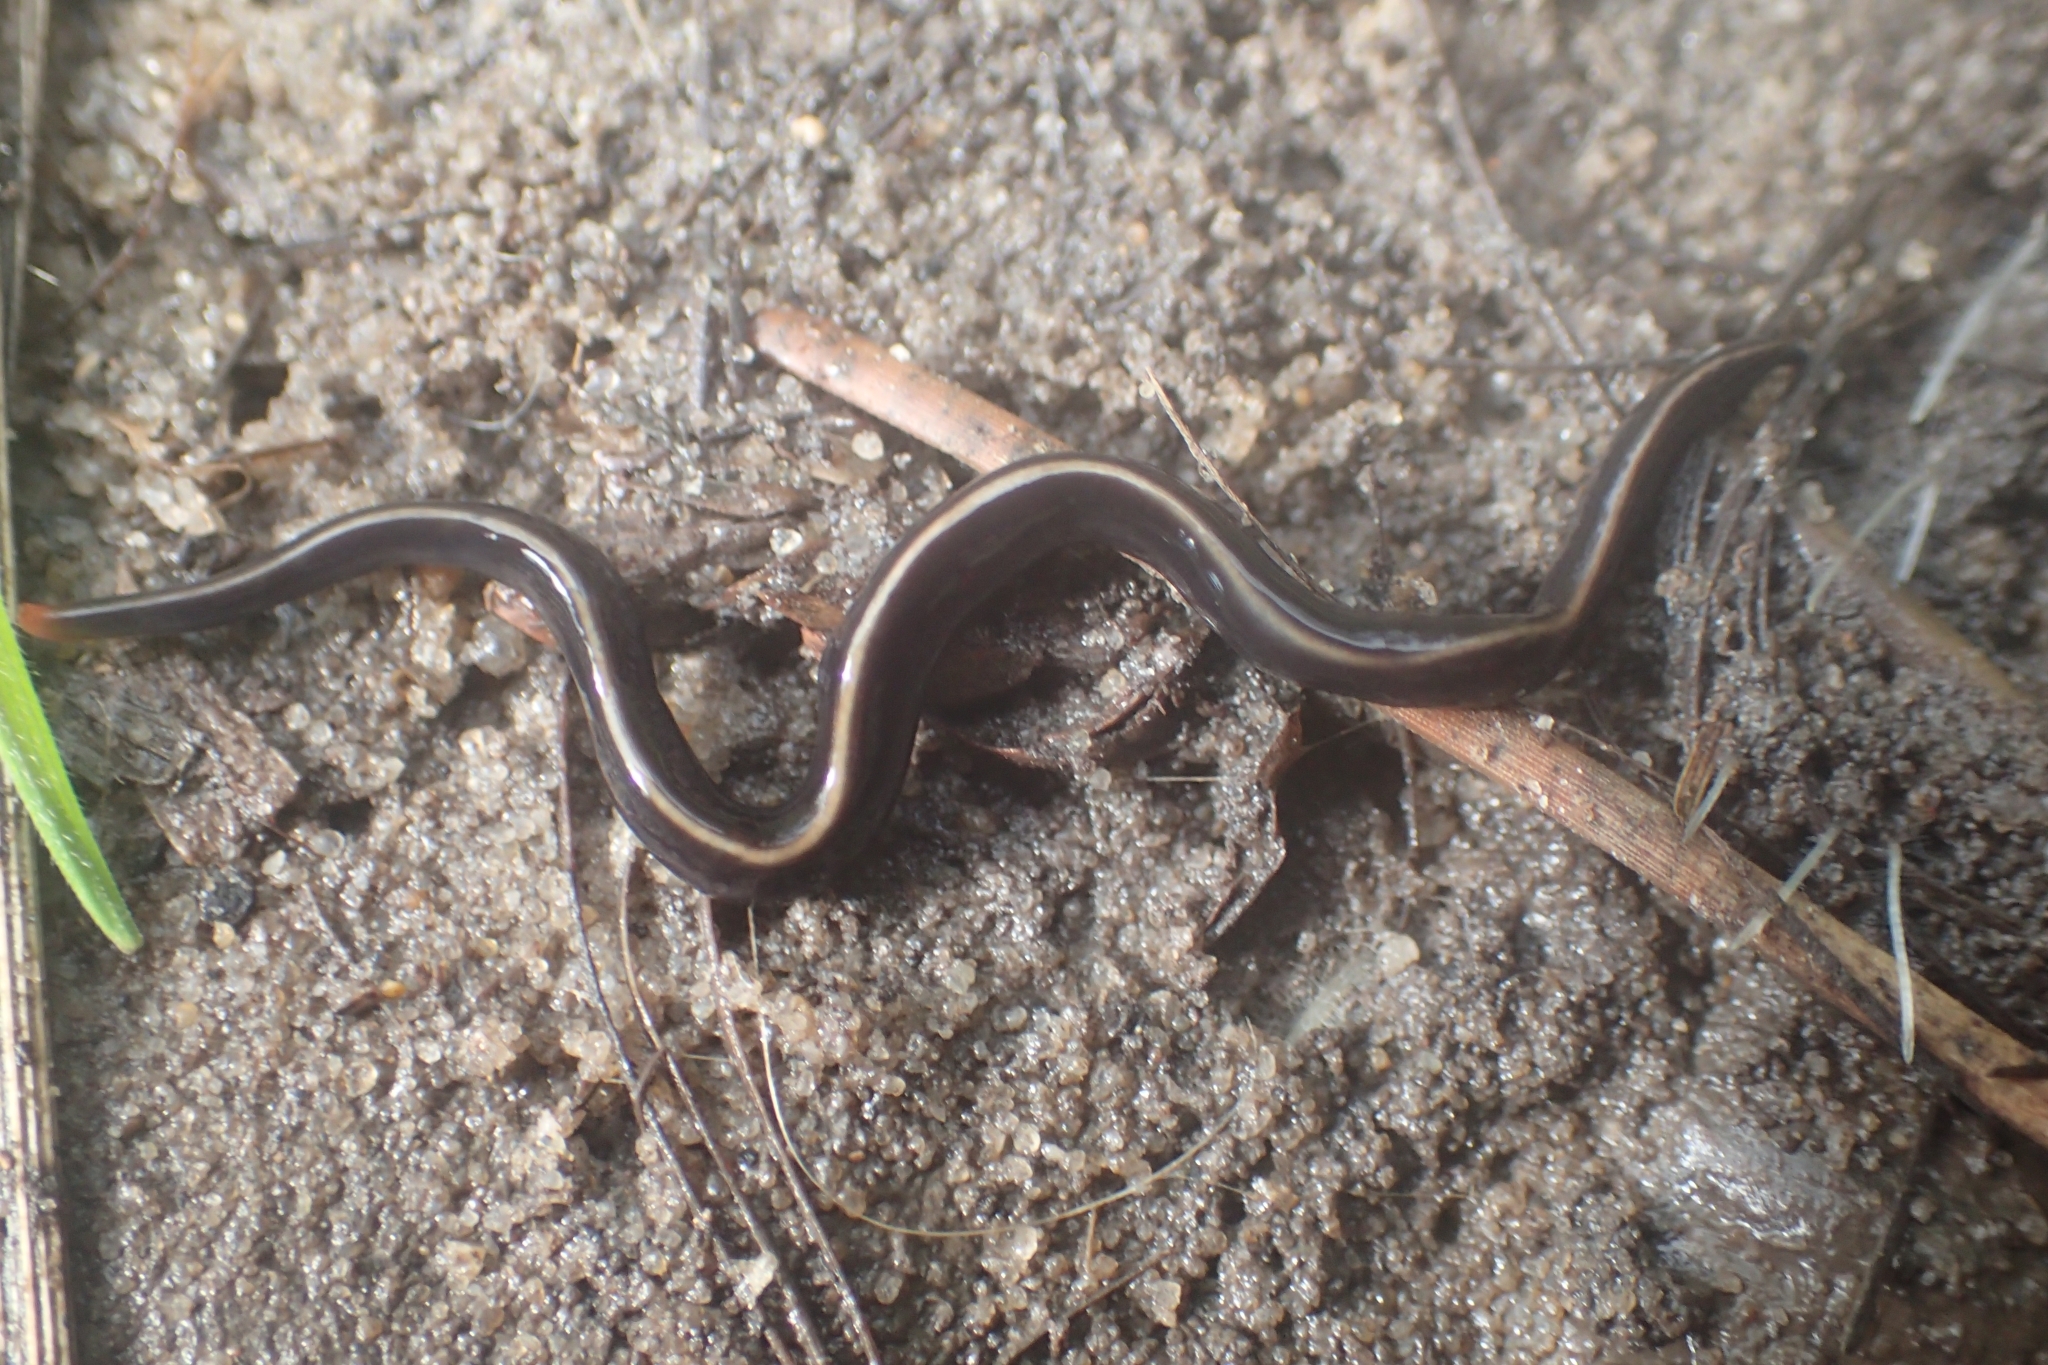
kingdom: Animalia
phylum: Platyhelminthes
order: Tricladida
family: Geoplanidae
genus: Caenoplana
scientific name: Caenoplana coerulea
